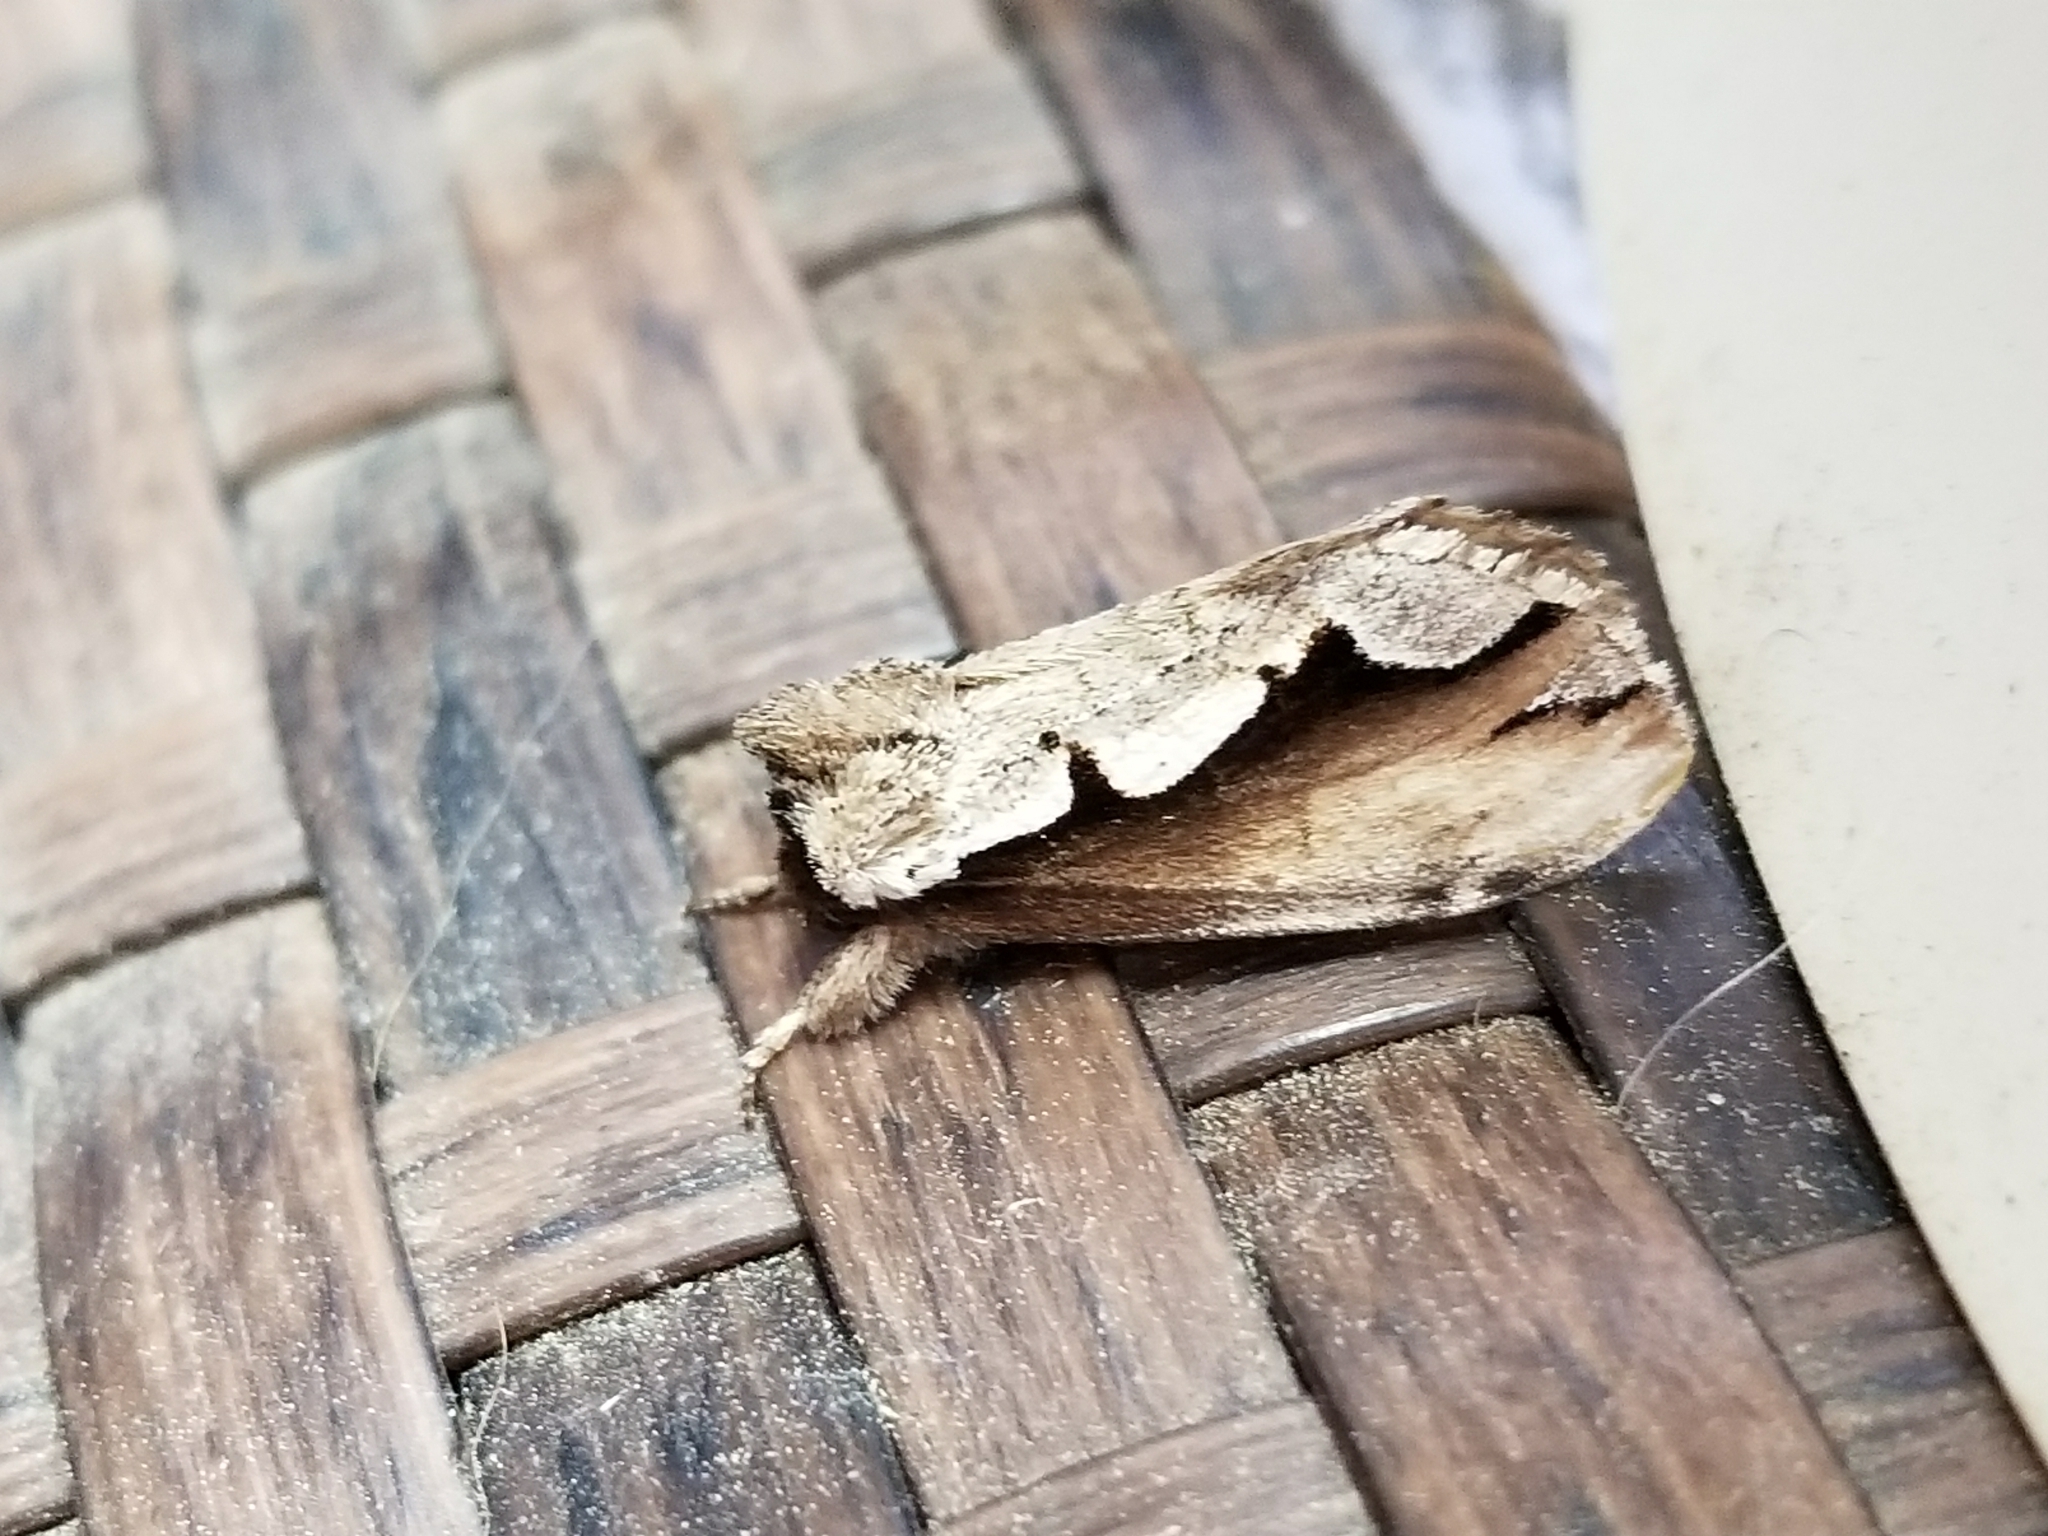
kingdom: Animalia
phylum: Arthropoda
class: Insecta
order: Lepidoptera
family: Notodontidae
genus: Nerice
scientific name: Nerice bidentata
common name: Double-toothed prominent
